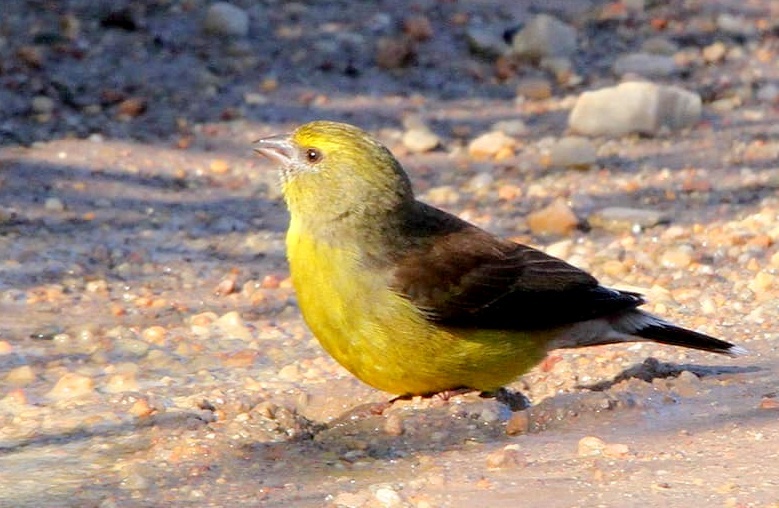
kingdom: Animalia
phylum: Chordata
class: Aves
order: Passeriformes
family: Fringillidae
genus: Crithagra
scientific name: Crithagra totta
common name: Cape siskin
